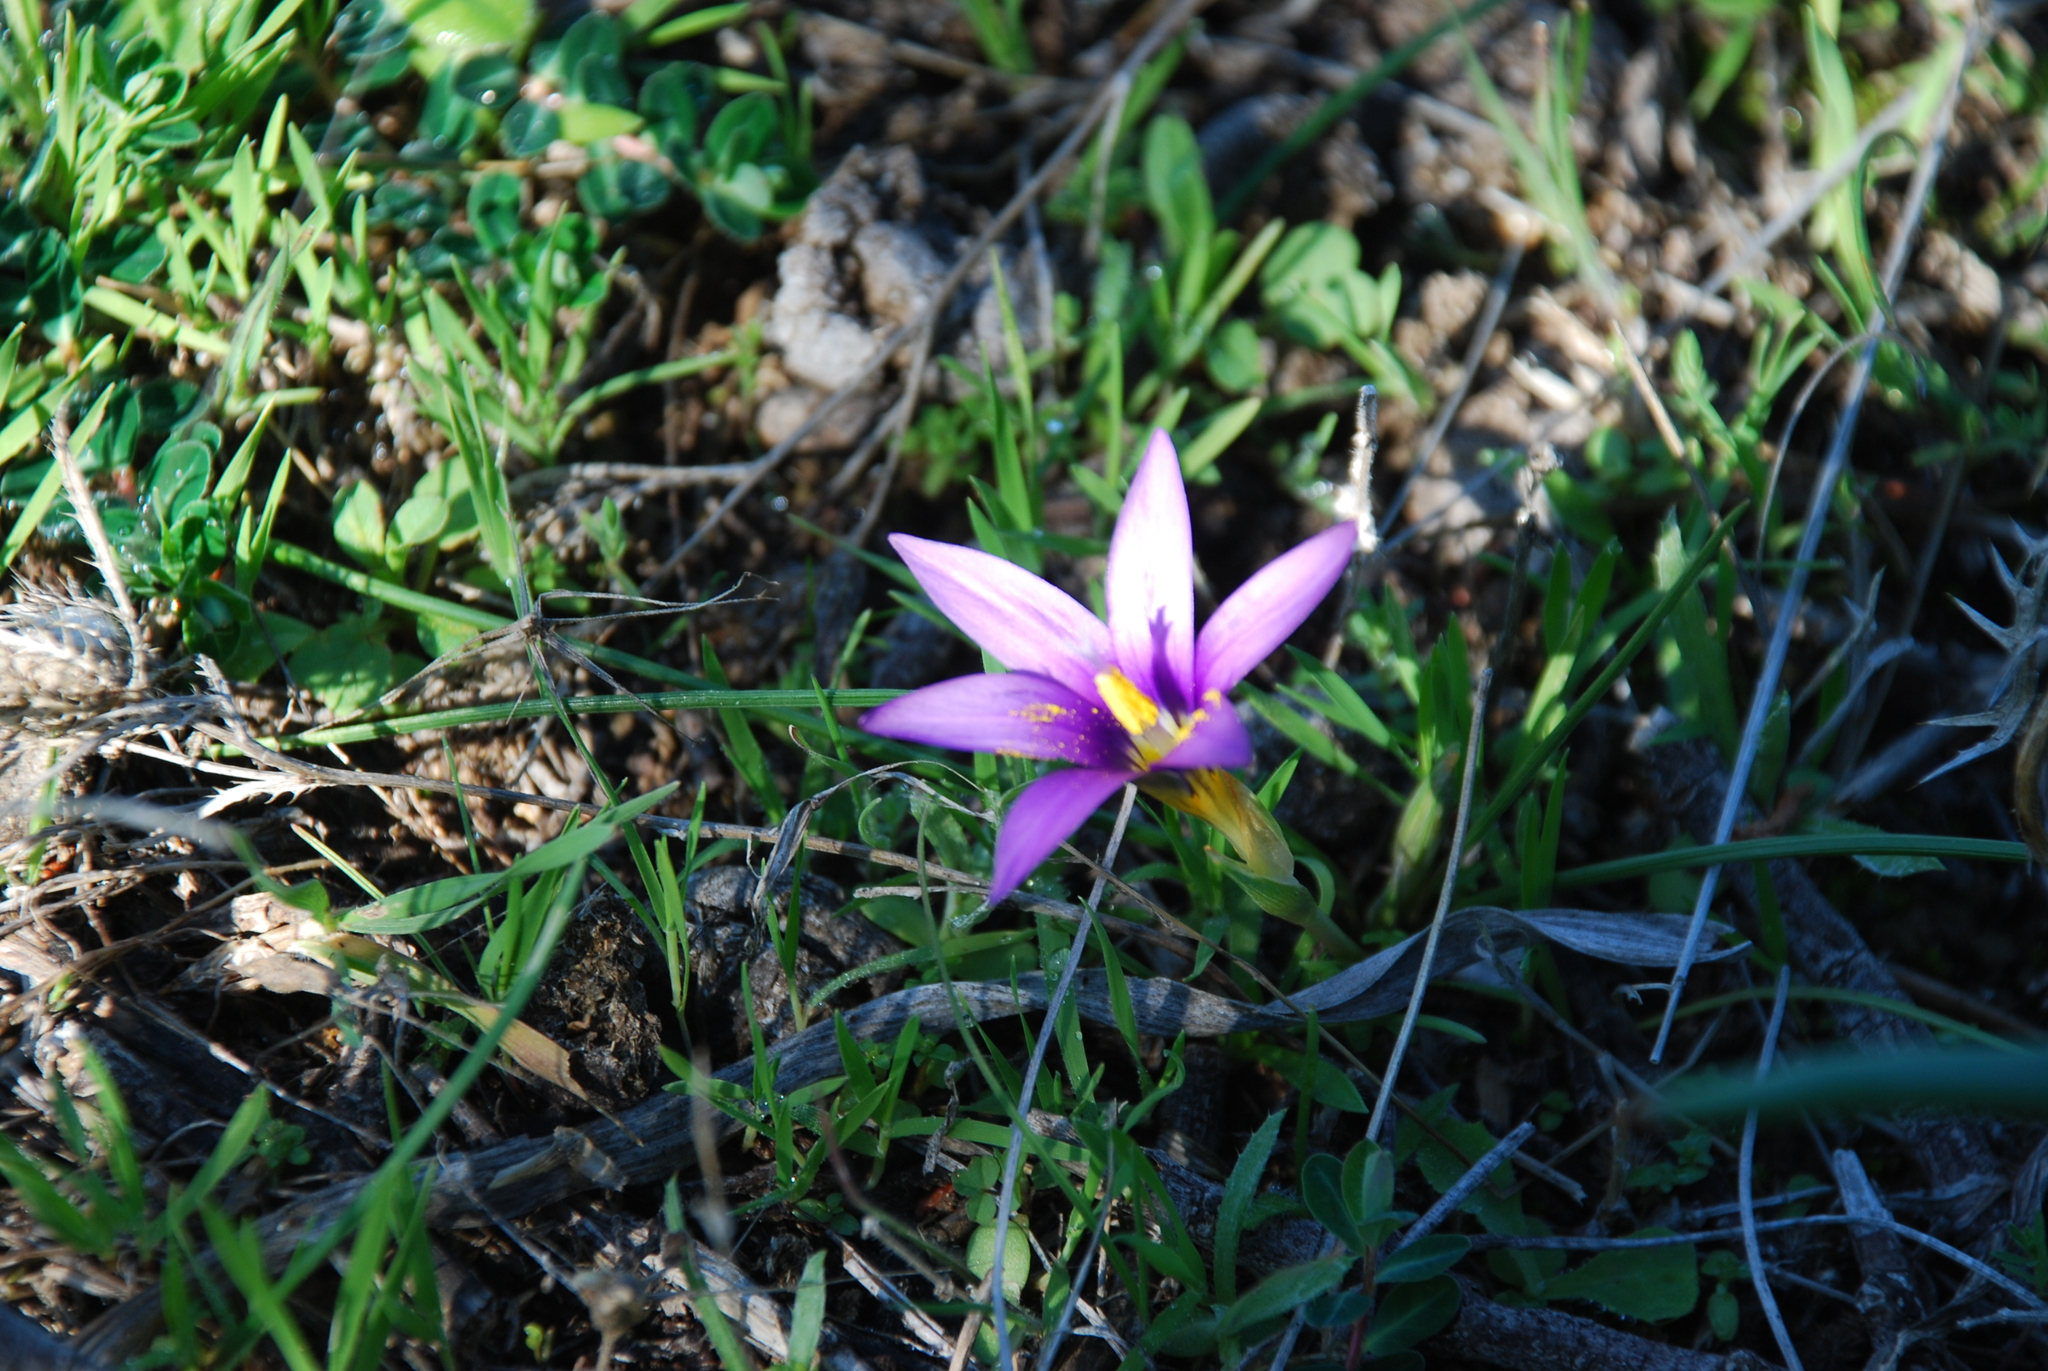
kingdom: Plantae
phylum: Tracheophyta
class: Liliopsida
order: Asparagales
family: Iridaceae
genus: Romulea
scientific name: Romulea tempskyana
